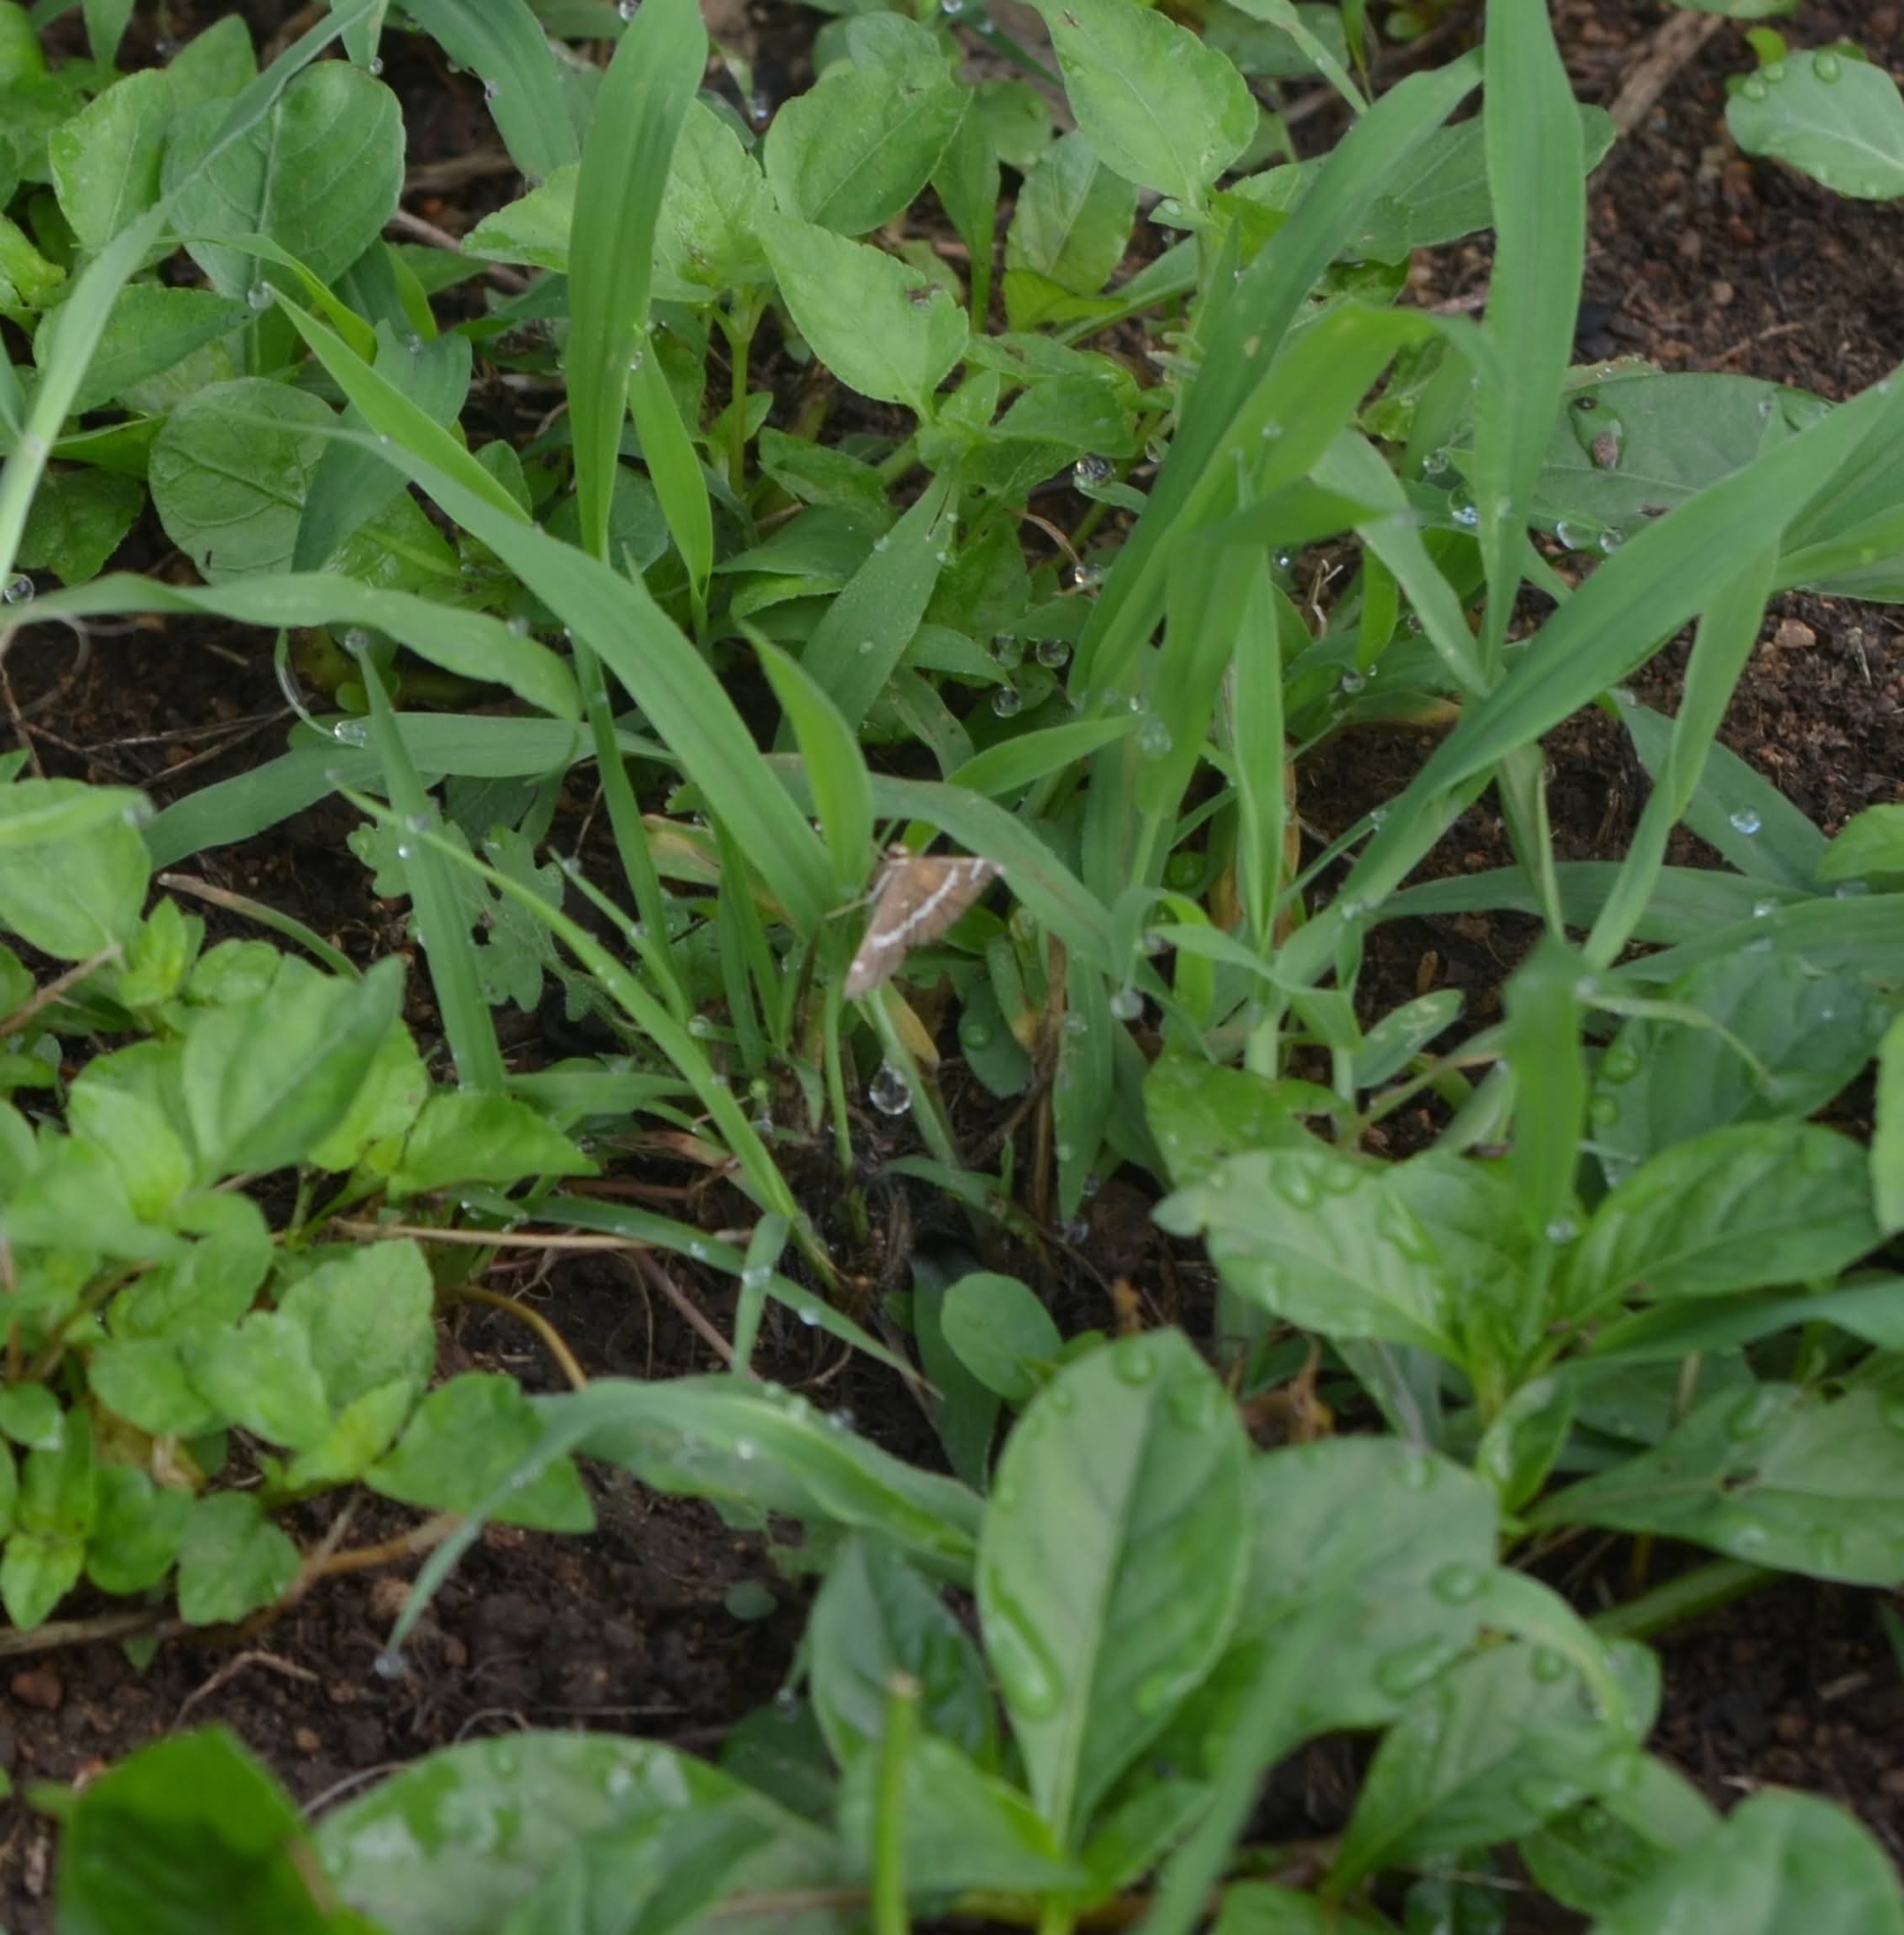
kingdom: Animalia
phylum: Arthropoda
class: Insecta
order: Lepidoptera
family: Crambidae
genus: Spoladea
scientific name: Spoladea recurvalis
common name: Beet webworm moth
